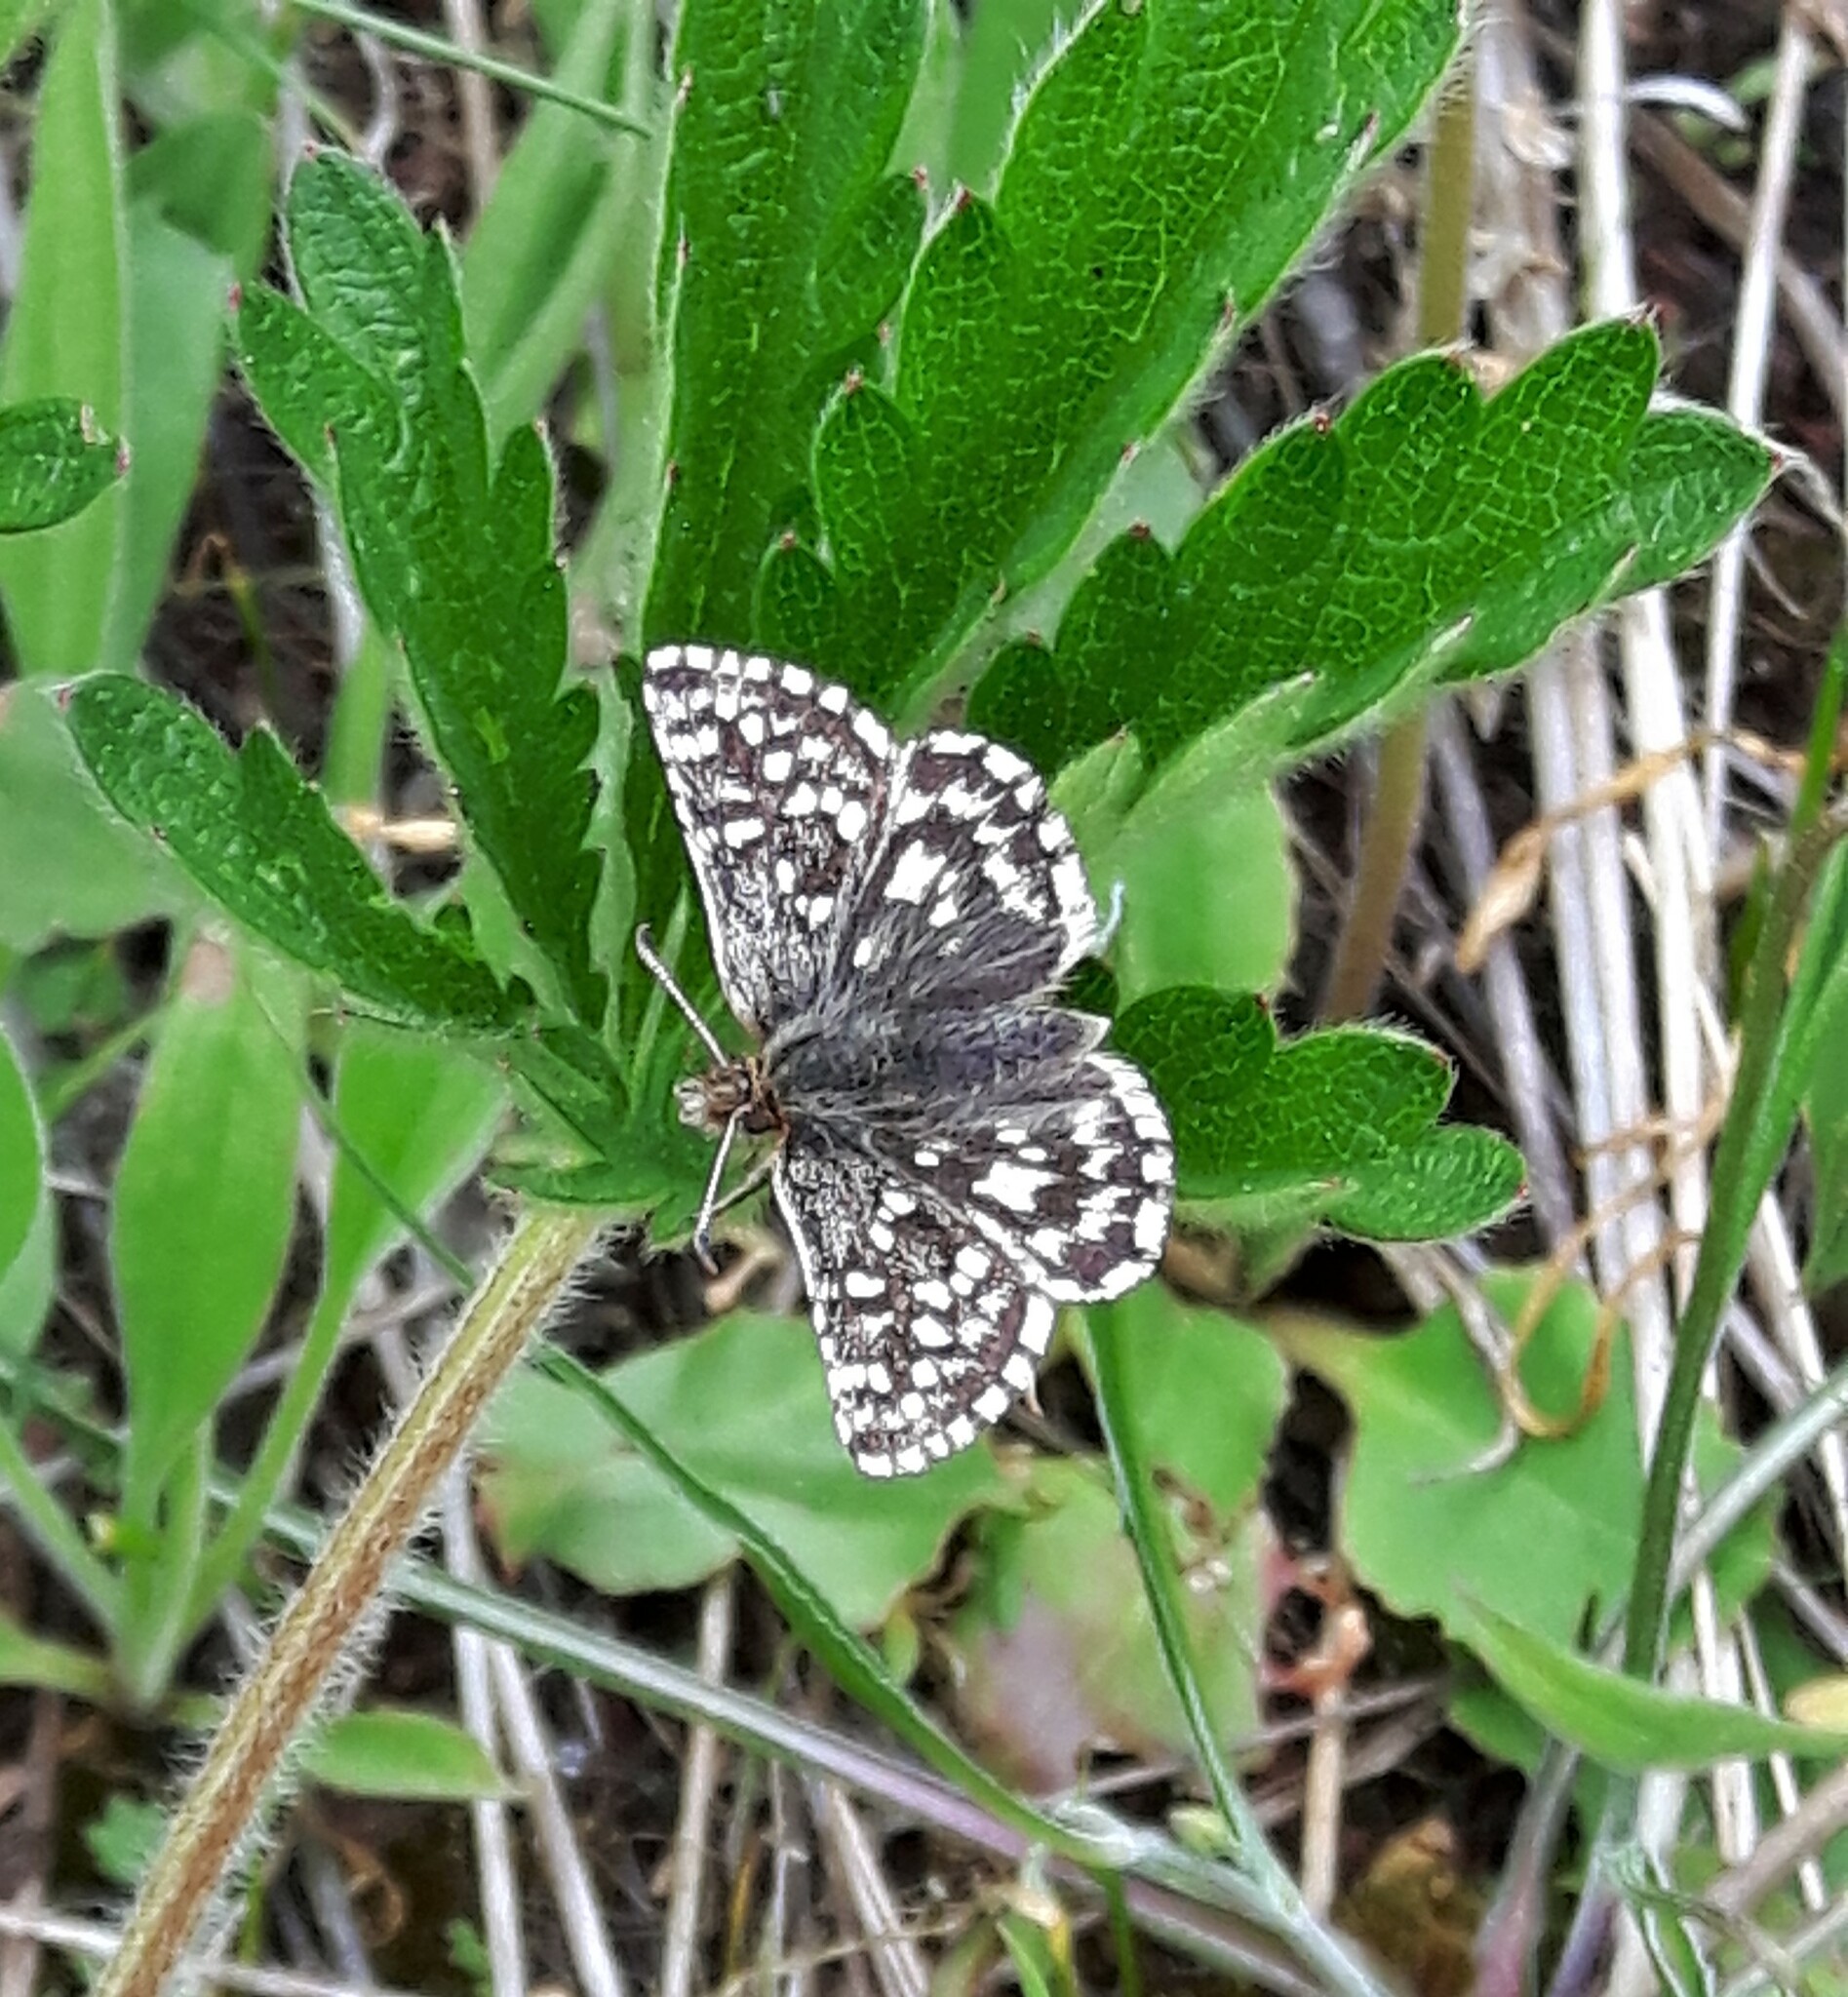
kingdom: Animalia
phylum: Arthropoda
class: Insecta
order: Lepidoptera
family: Hesperiidae
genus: Pyrgus
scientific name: Pyrgus ruralis
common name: Two-banded checkered-skipper
